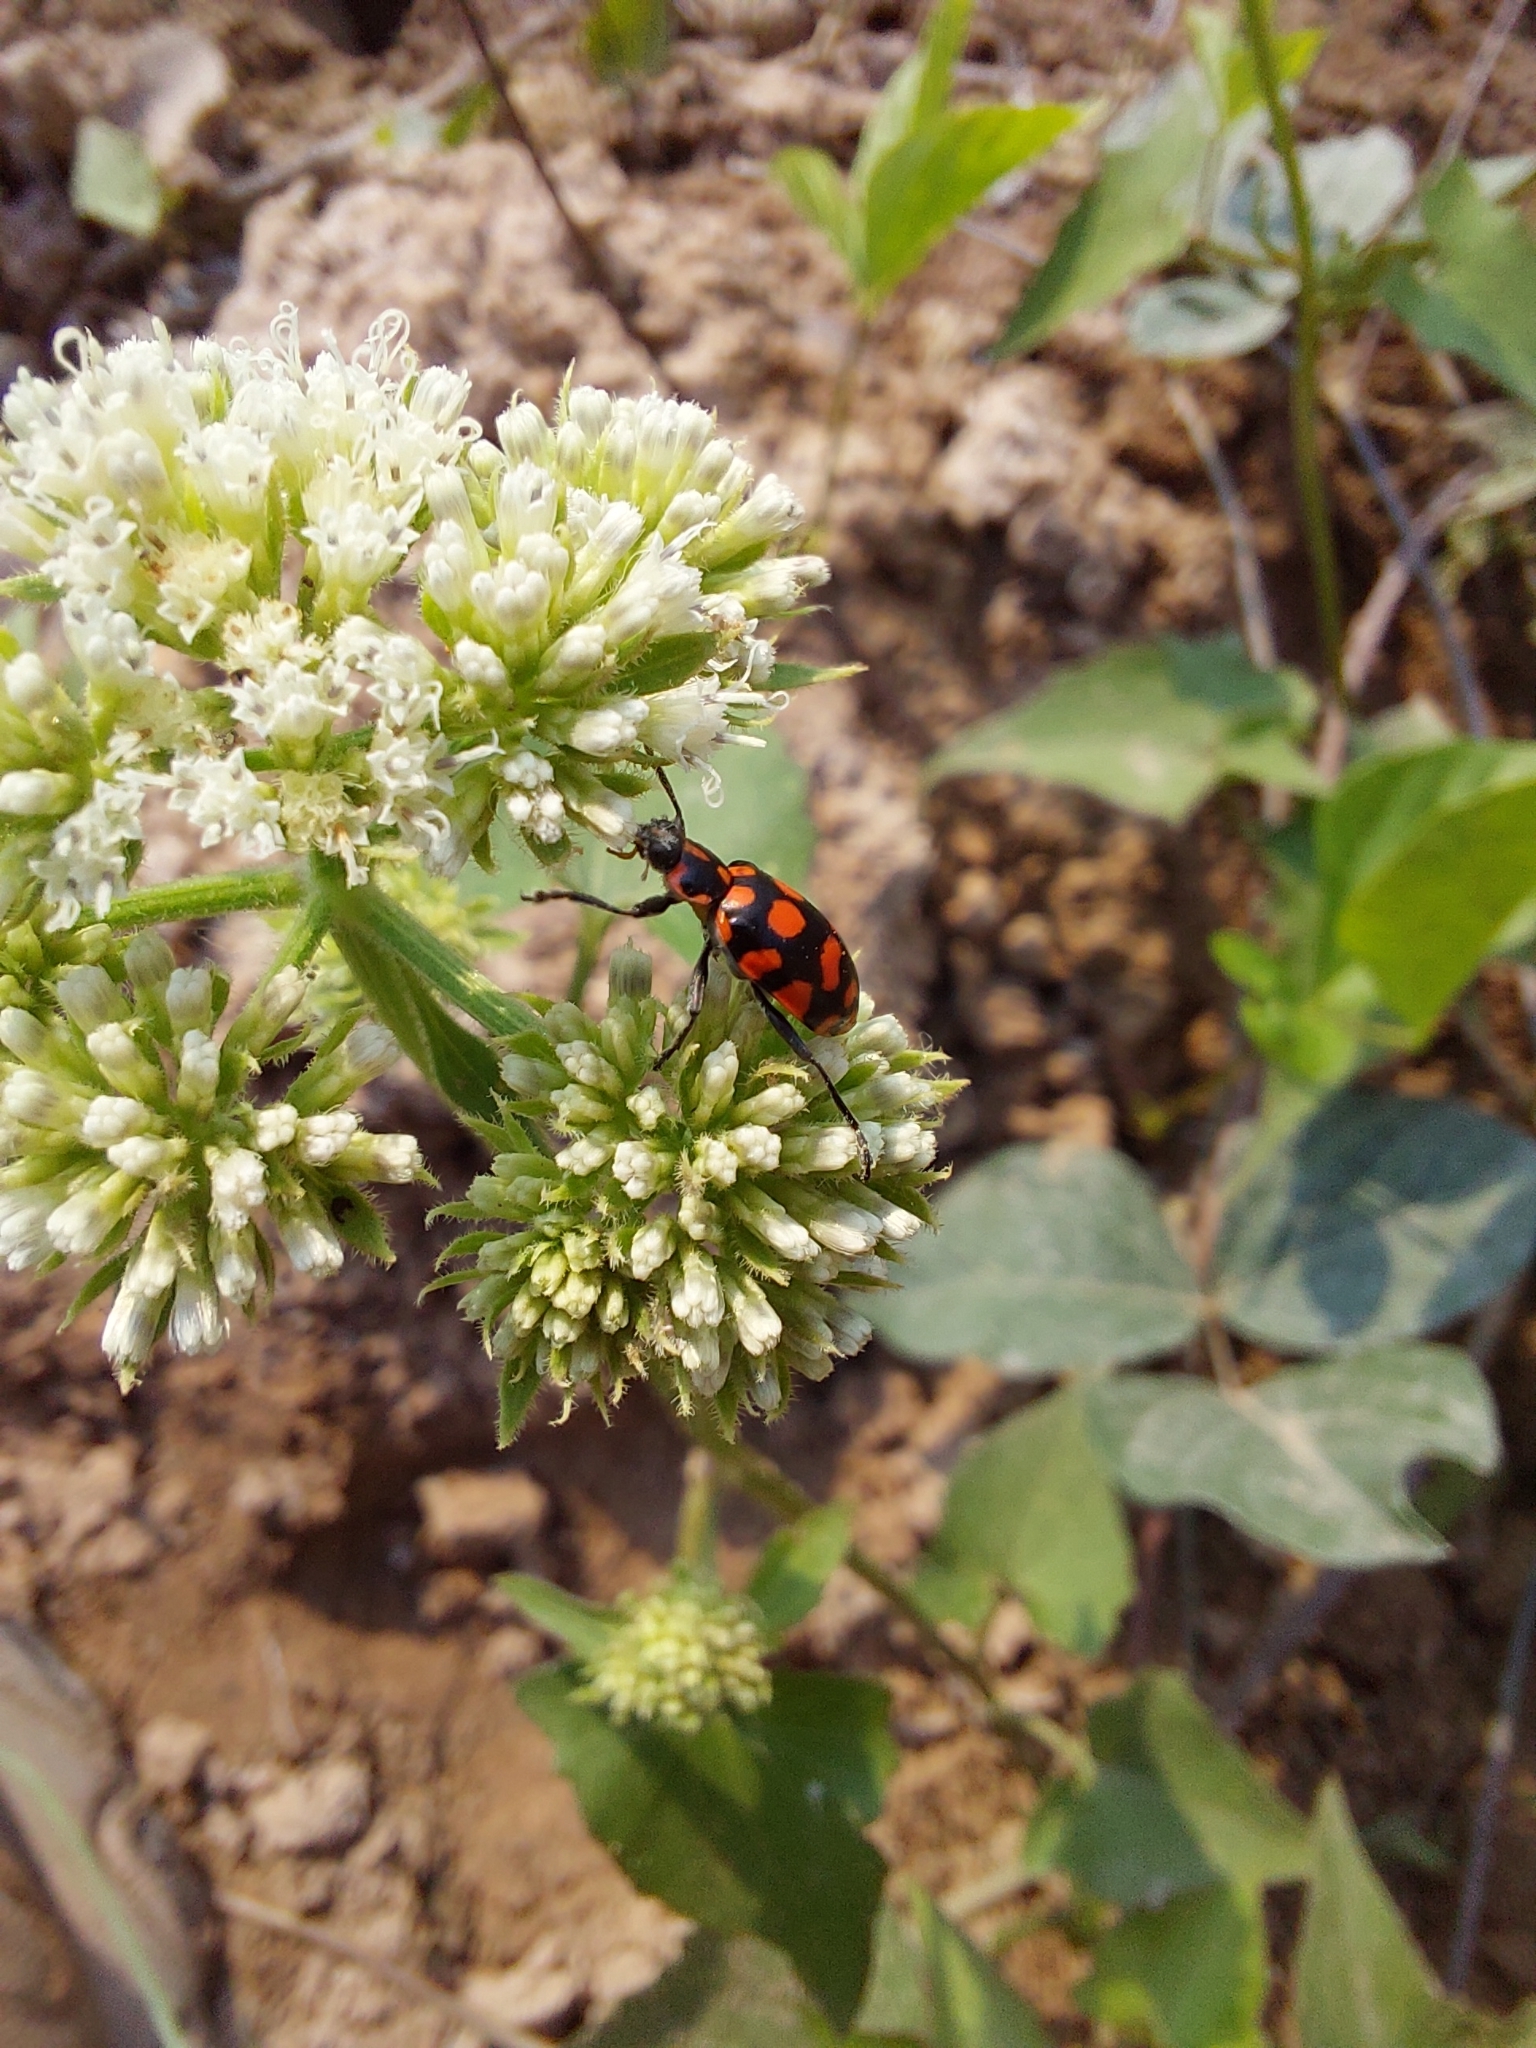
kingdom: Animalia
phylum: Arthropoda
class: Insecta
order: Coleoptera
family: Coccinellidae
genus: Coleomegilla
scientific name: Coleomegilla
